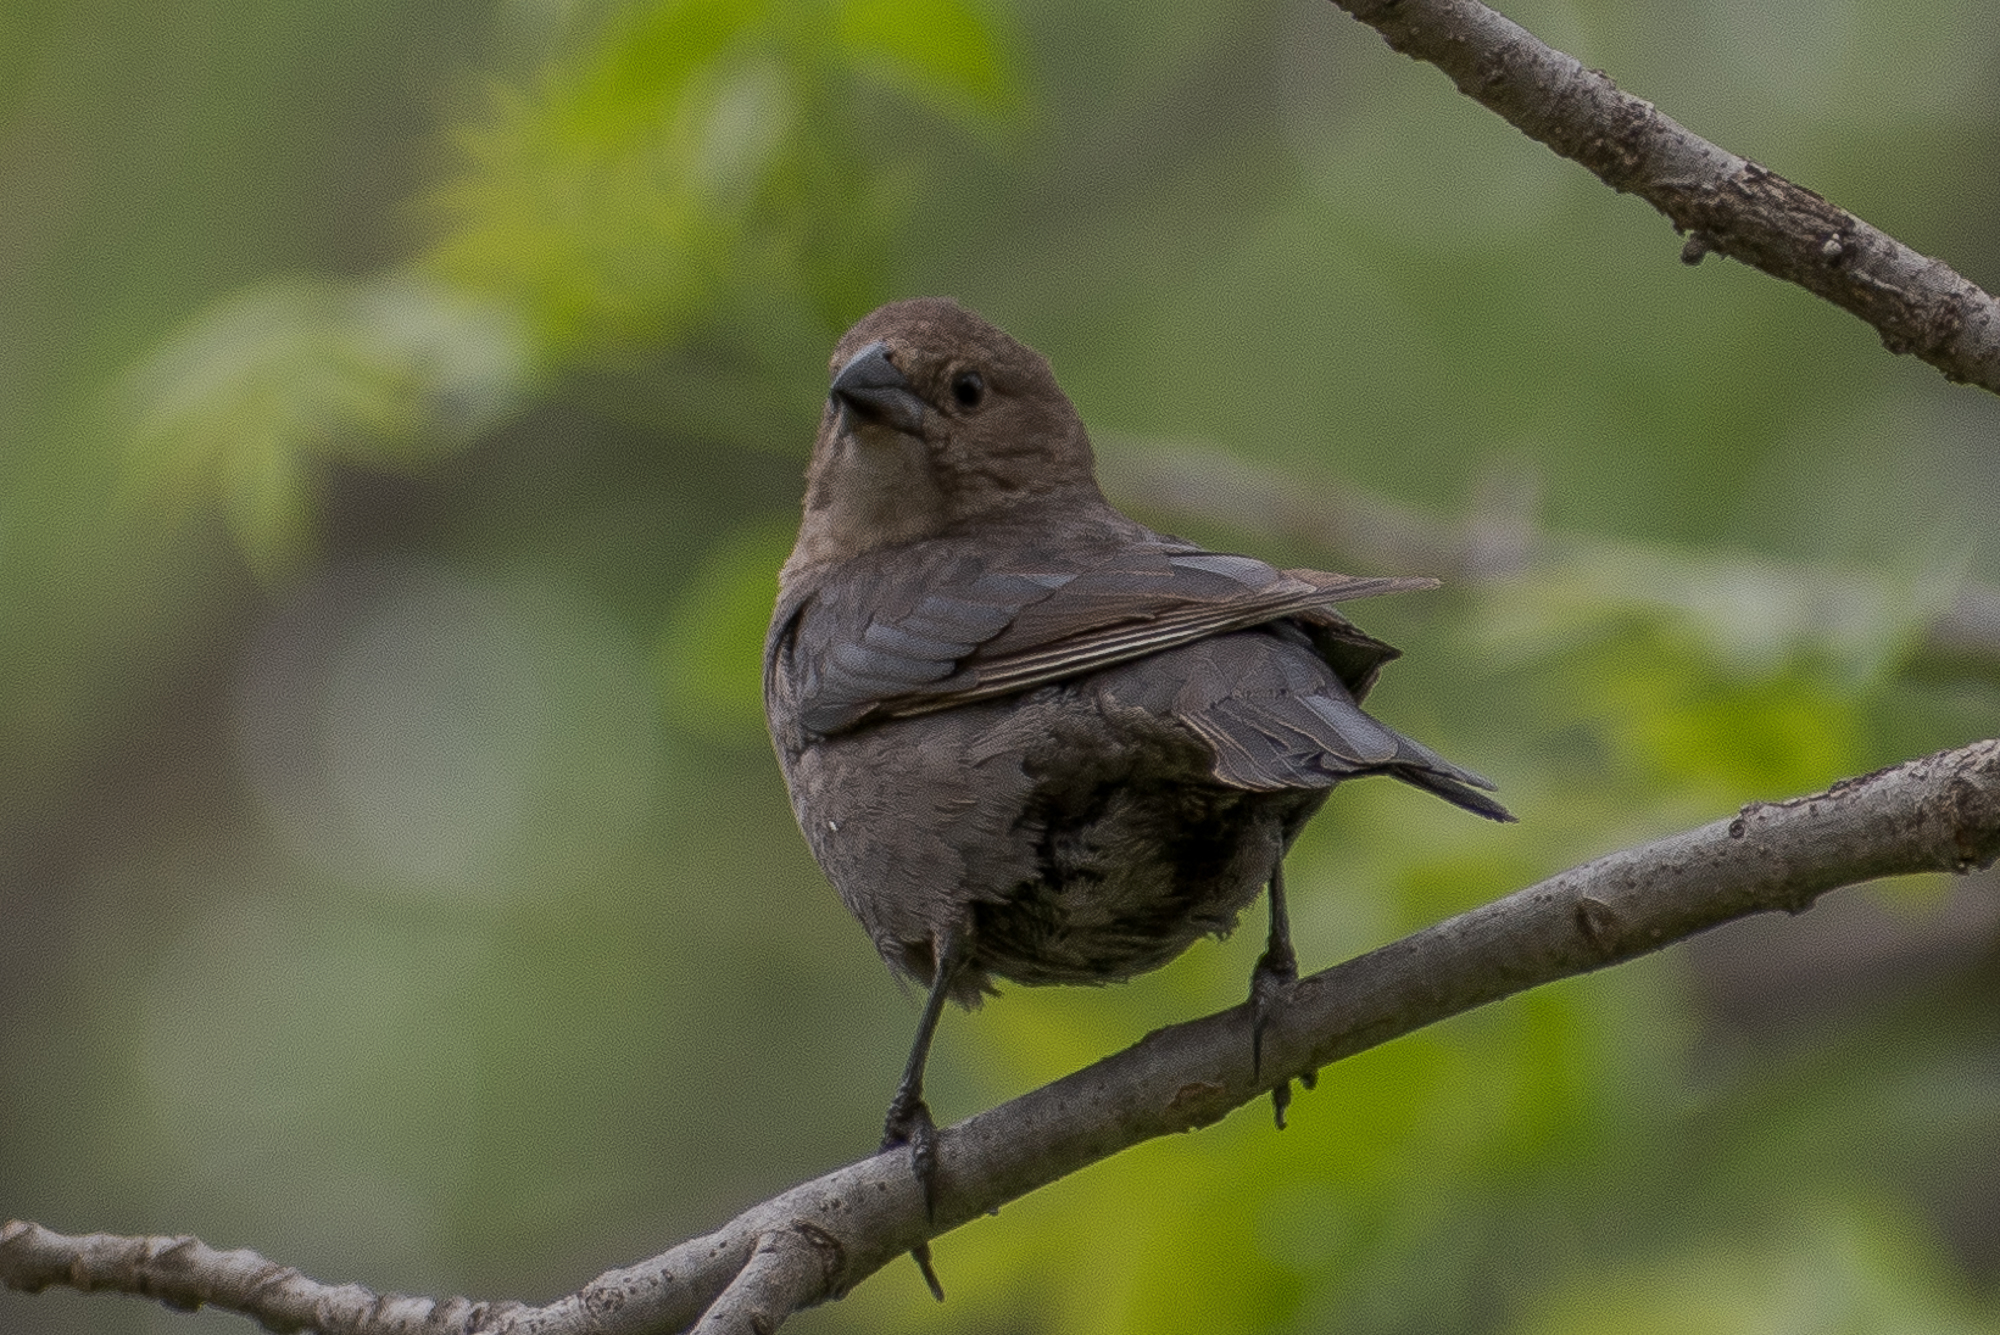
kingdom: Animalia
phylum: Chordata
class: Aves
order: Passeriformes
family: Icteridae
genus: Molothrus
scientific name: Molothrus ater
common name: Brown-headed cowbird
